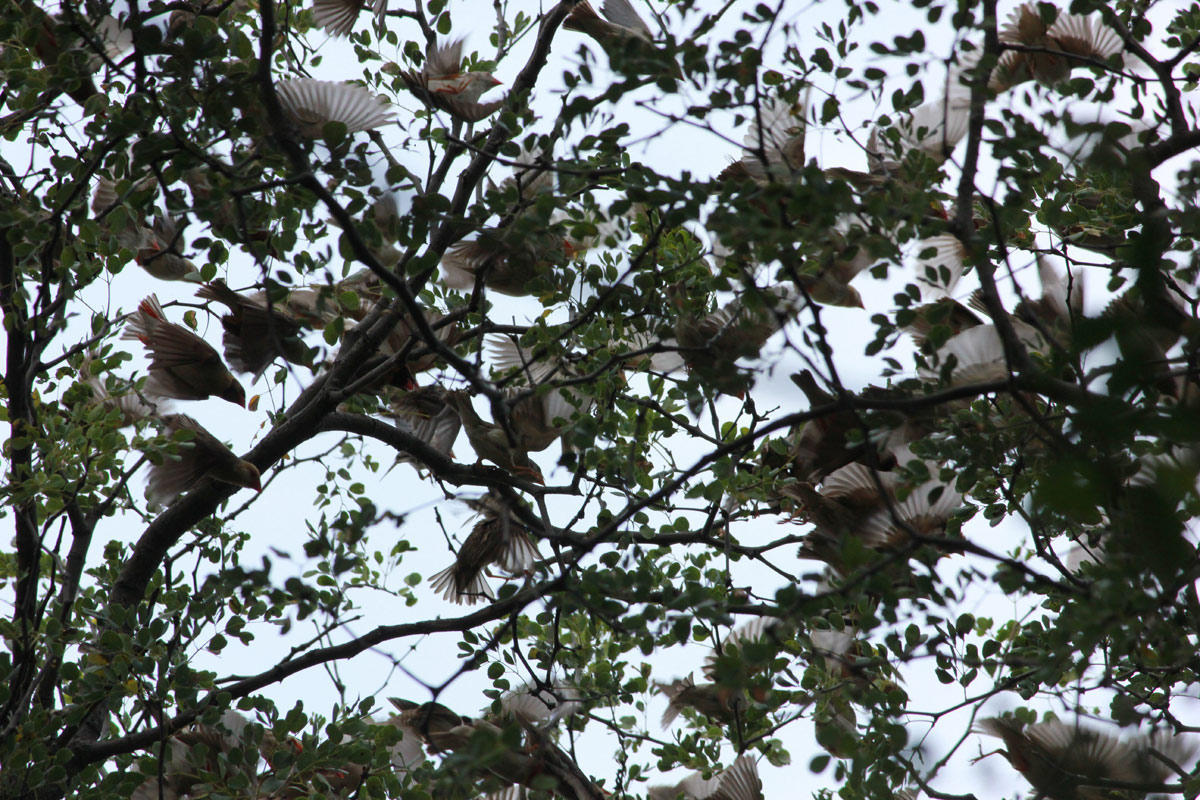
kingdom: Animalia
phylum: Chordata
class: Aves
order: Passeriformes
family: Ploceidae
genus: Quelea
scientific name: Quelea quelea
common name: Red-billed quelea
